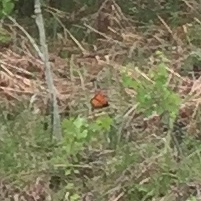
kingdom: Animalia
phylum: Arthropoda
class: Insecta
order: Lepidoptera
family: Nymphalidae
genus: Danaus
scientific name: Danaus plexippus
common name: Monarch
